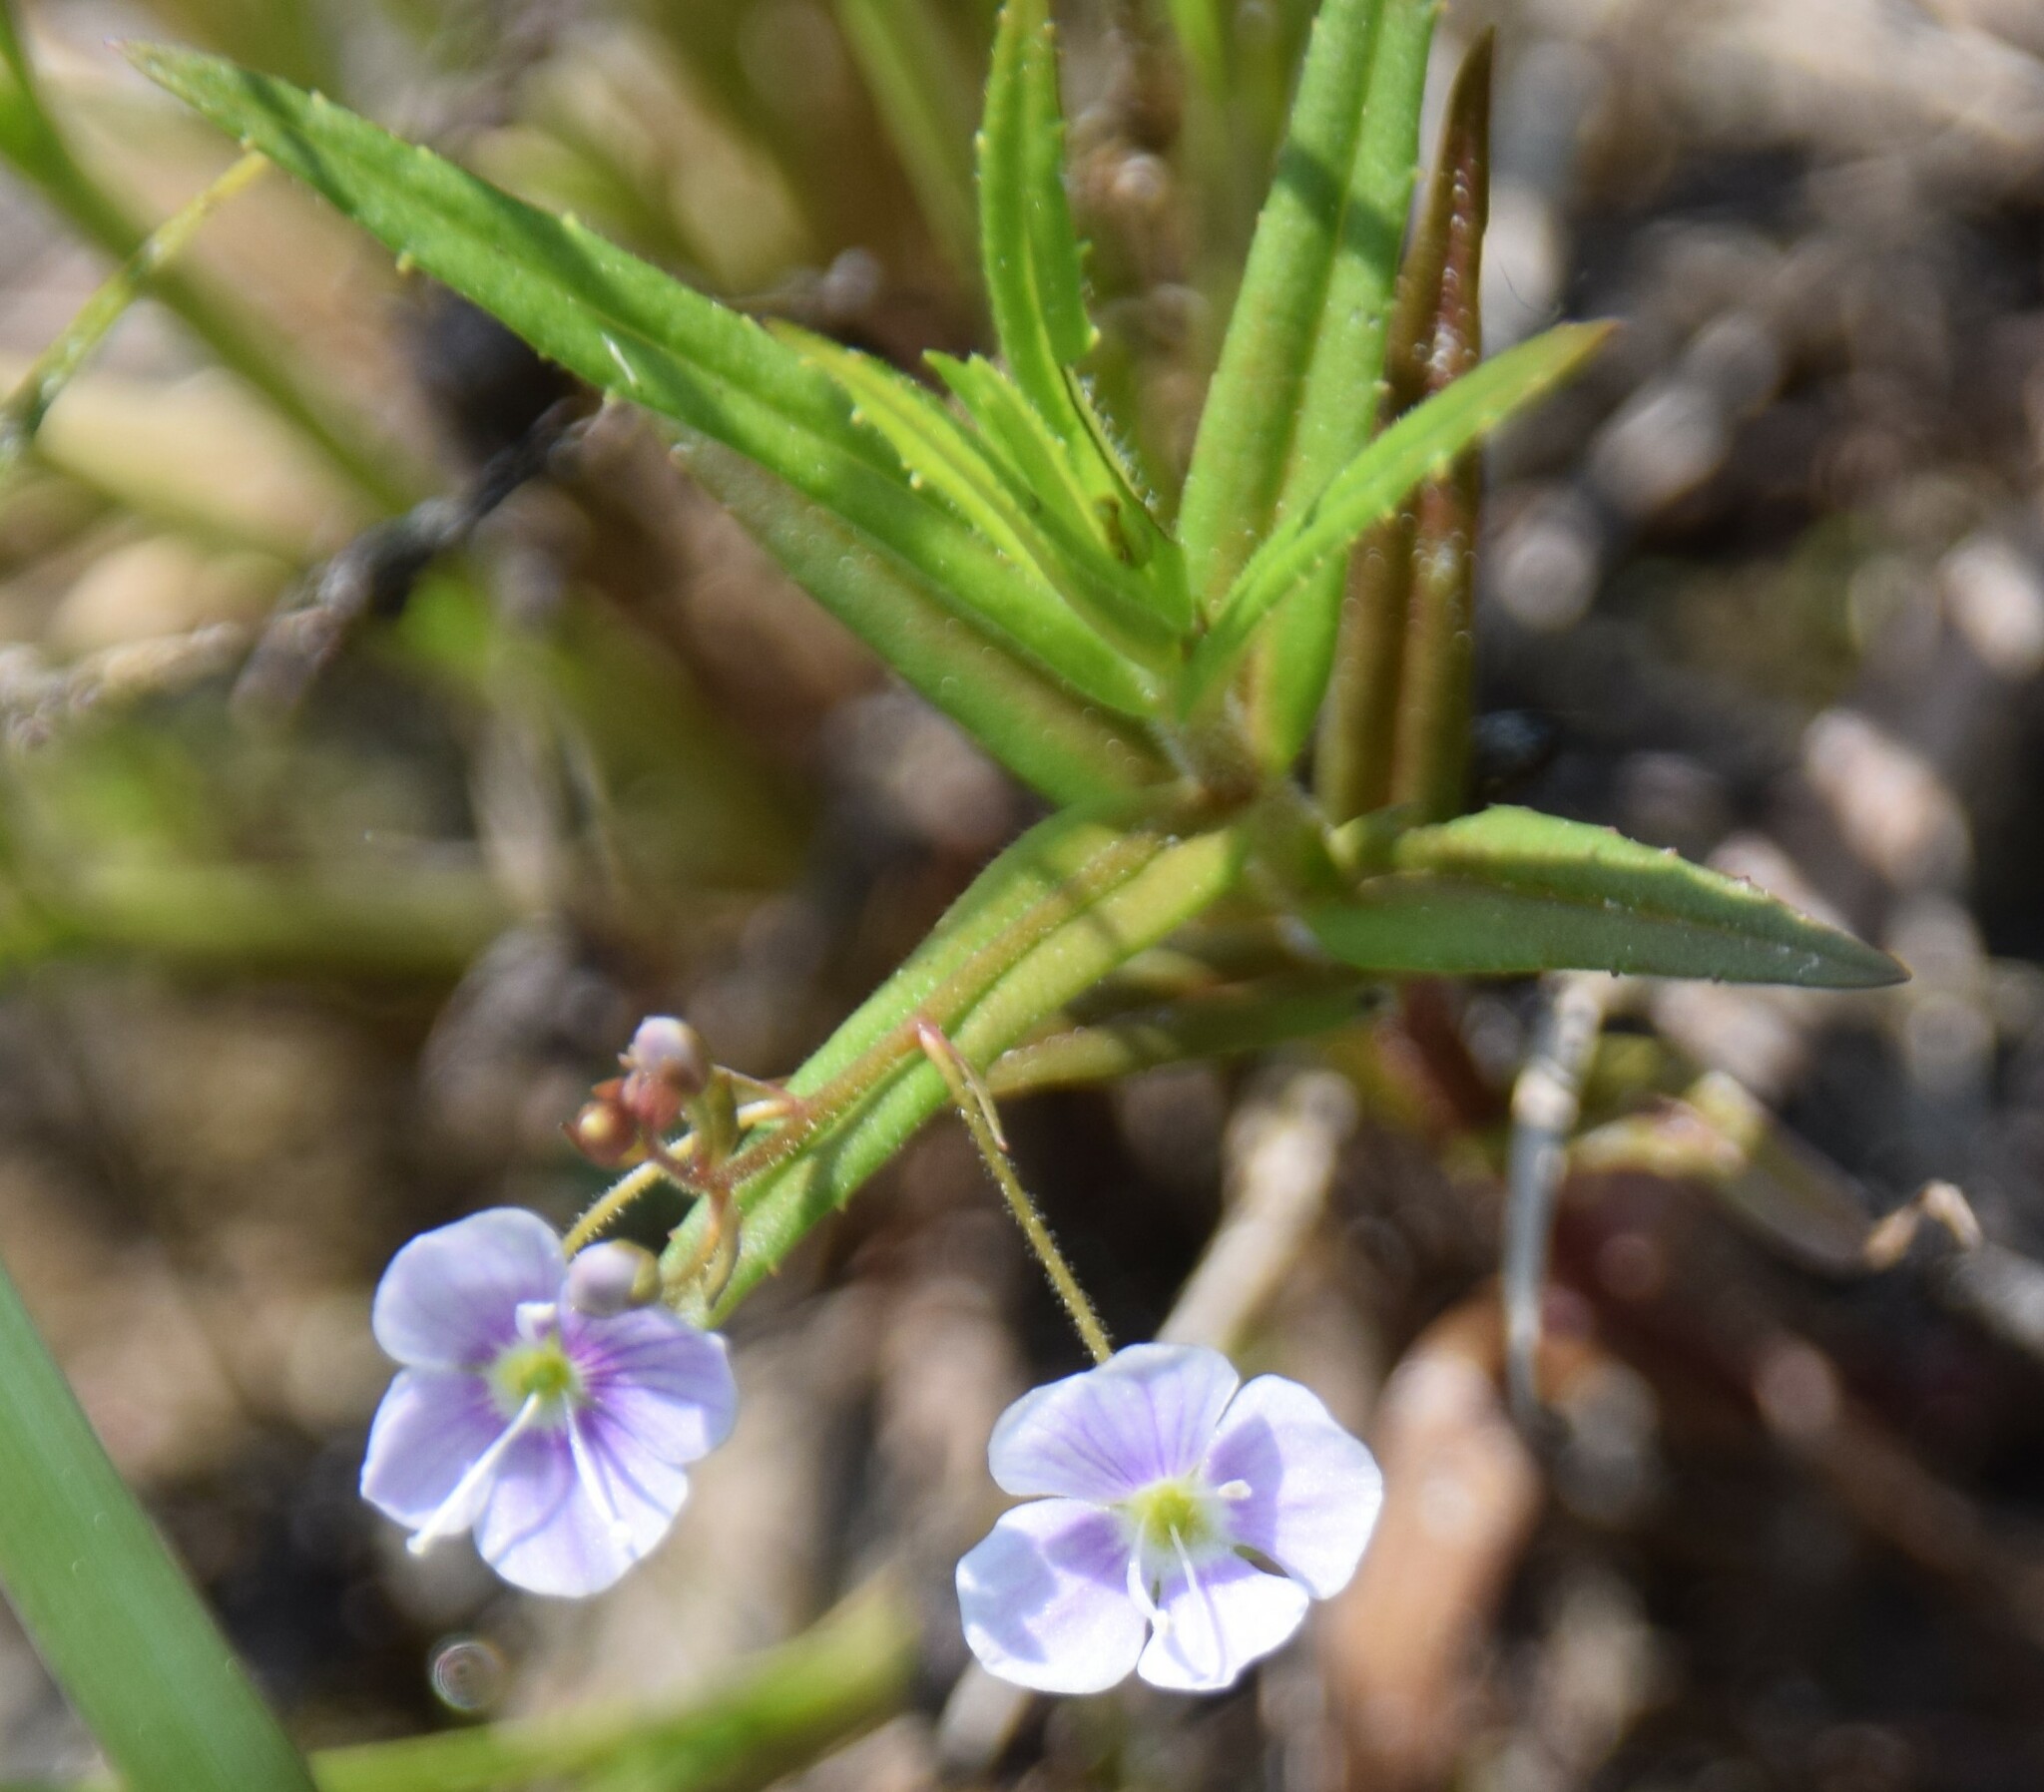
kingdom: Plantae
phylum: Tracheophyta
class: Magnoliopsida
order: Lamiales
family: Plantaginaceae
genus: Veronica
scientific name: Veronica scutellata
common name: Marsh speedwell
